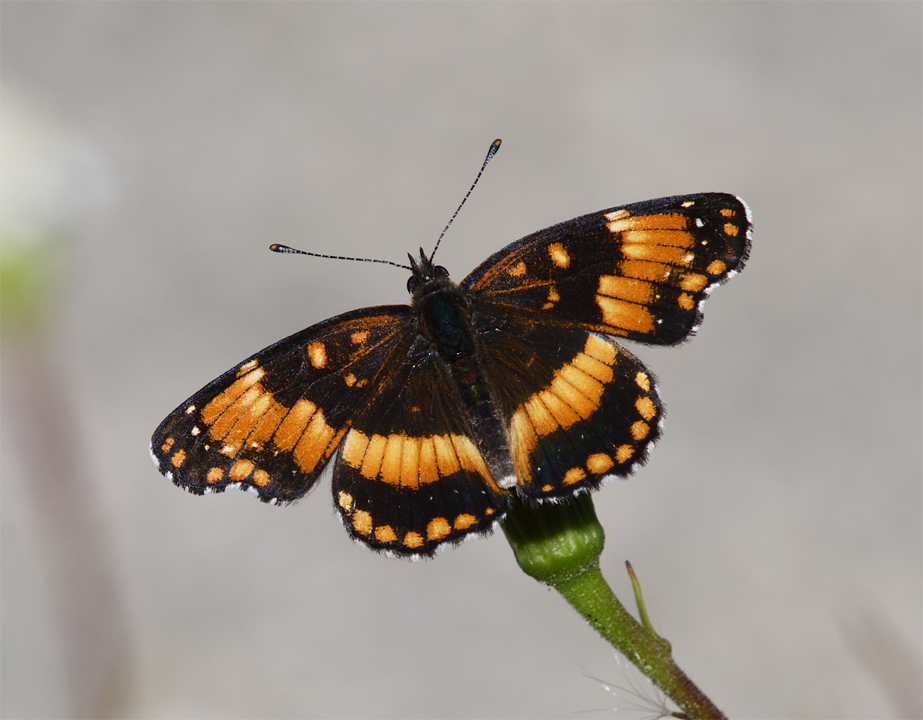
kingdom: Animalia
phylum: Arthropoda
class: Insecta
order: Lepidoptera
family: Nymphalidae
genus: Chlosyne
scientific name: Chlosyne californica
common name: California patch
